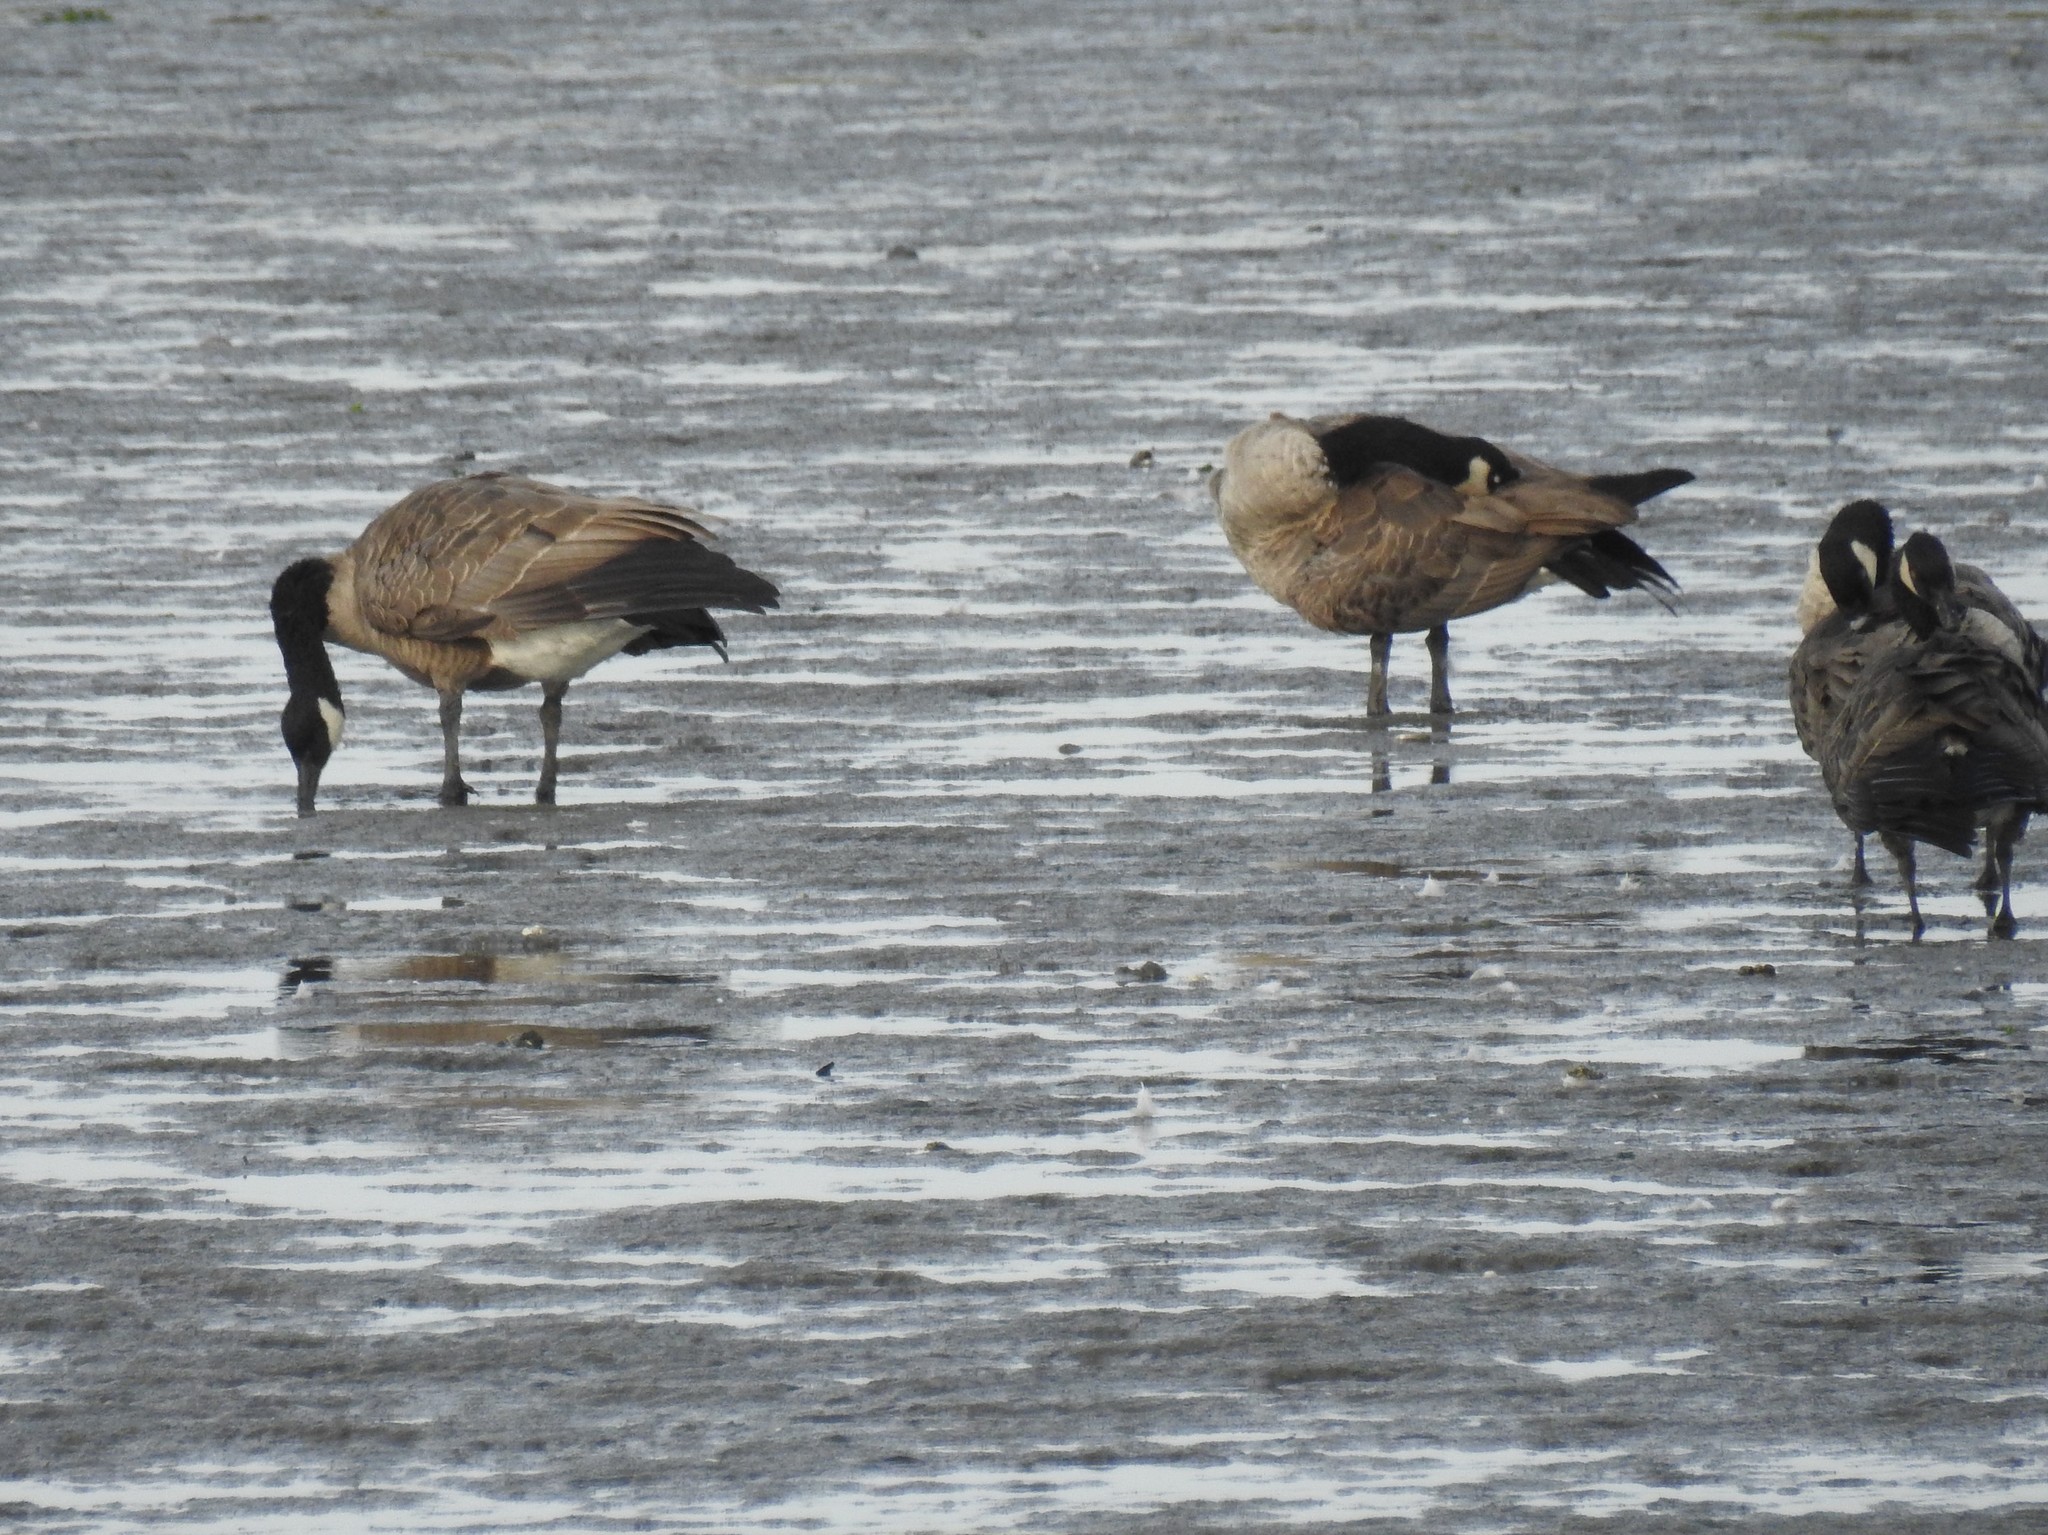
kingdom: Animalia
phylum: Chordata
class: Aves
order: Anseriformes
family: Anatidae
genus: Branta
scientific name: Branta canadensis
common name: Canada goose
